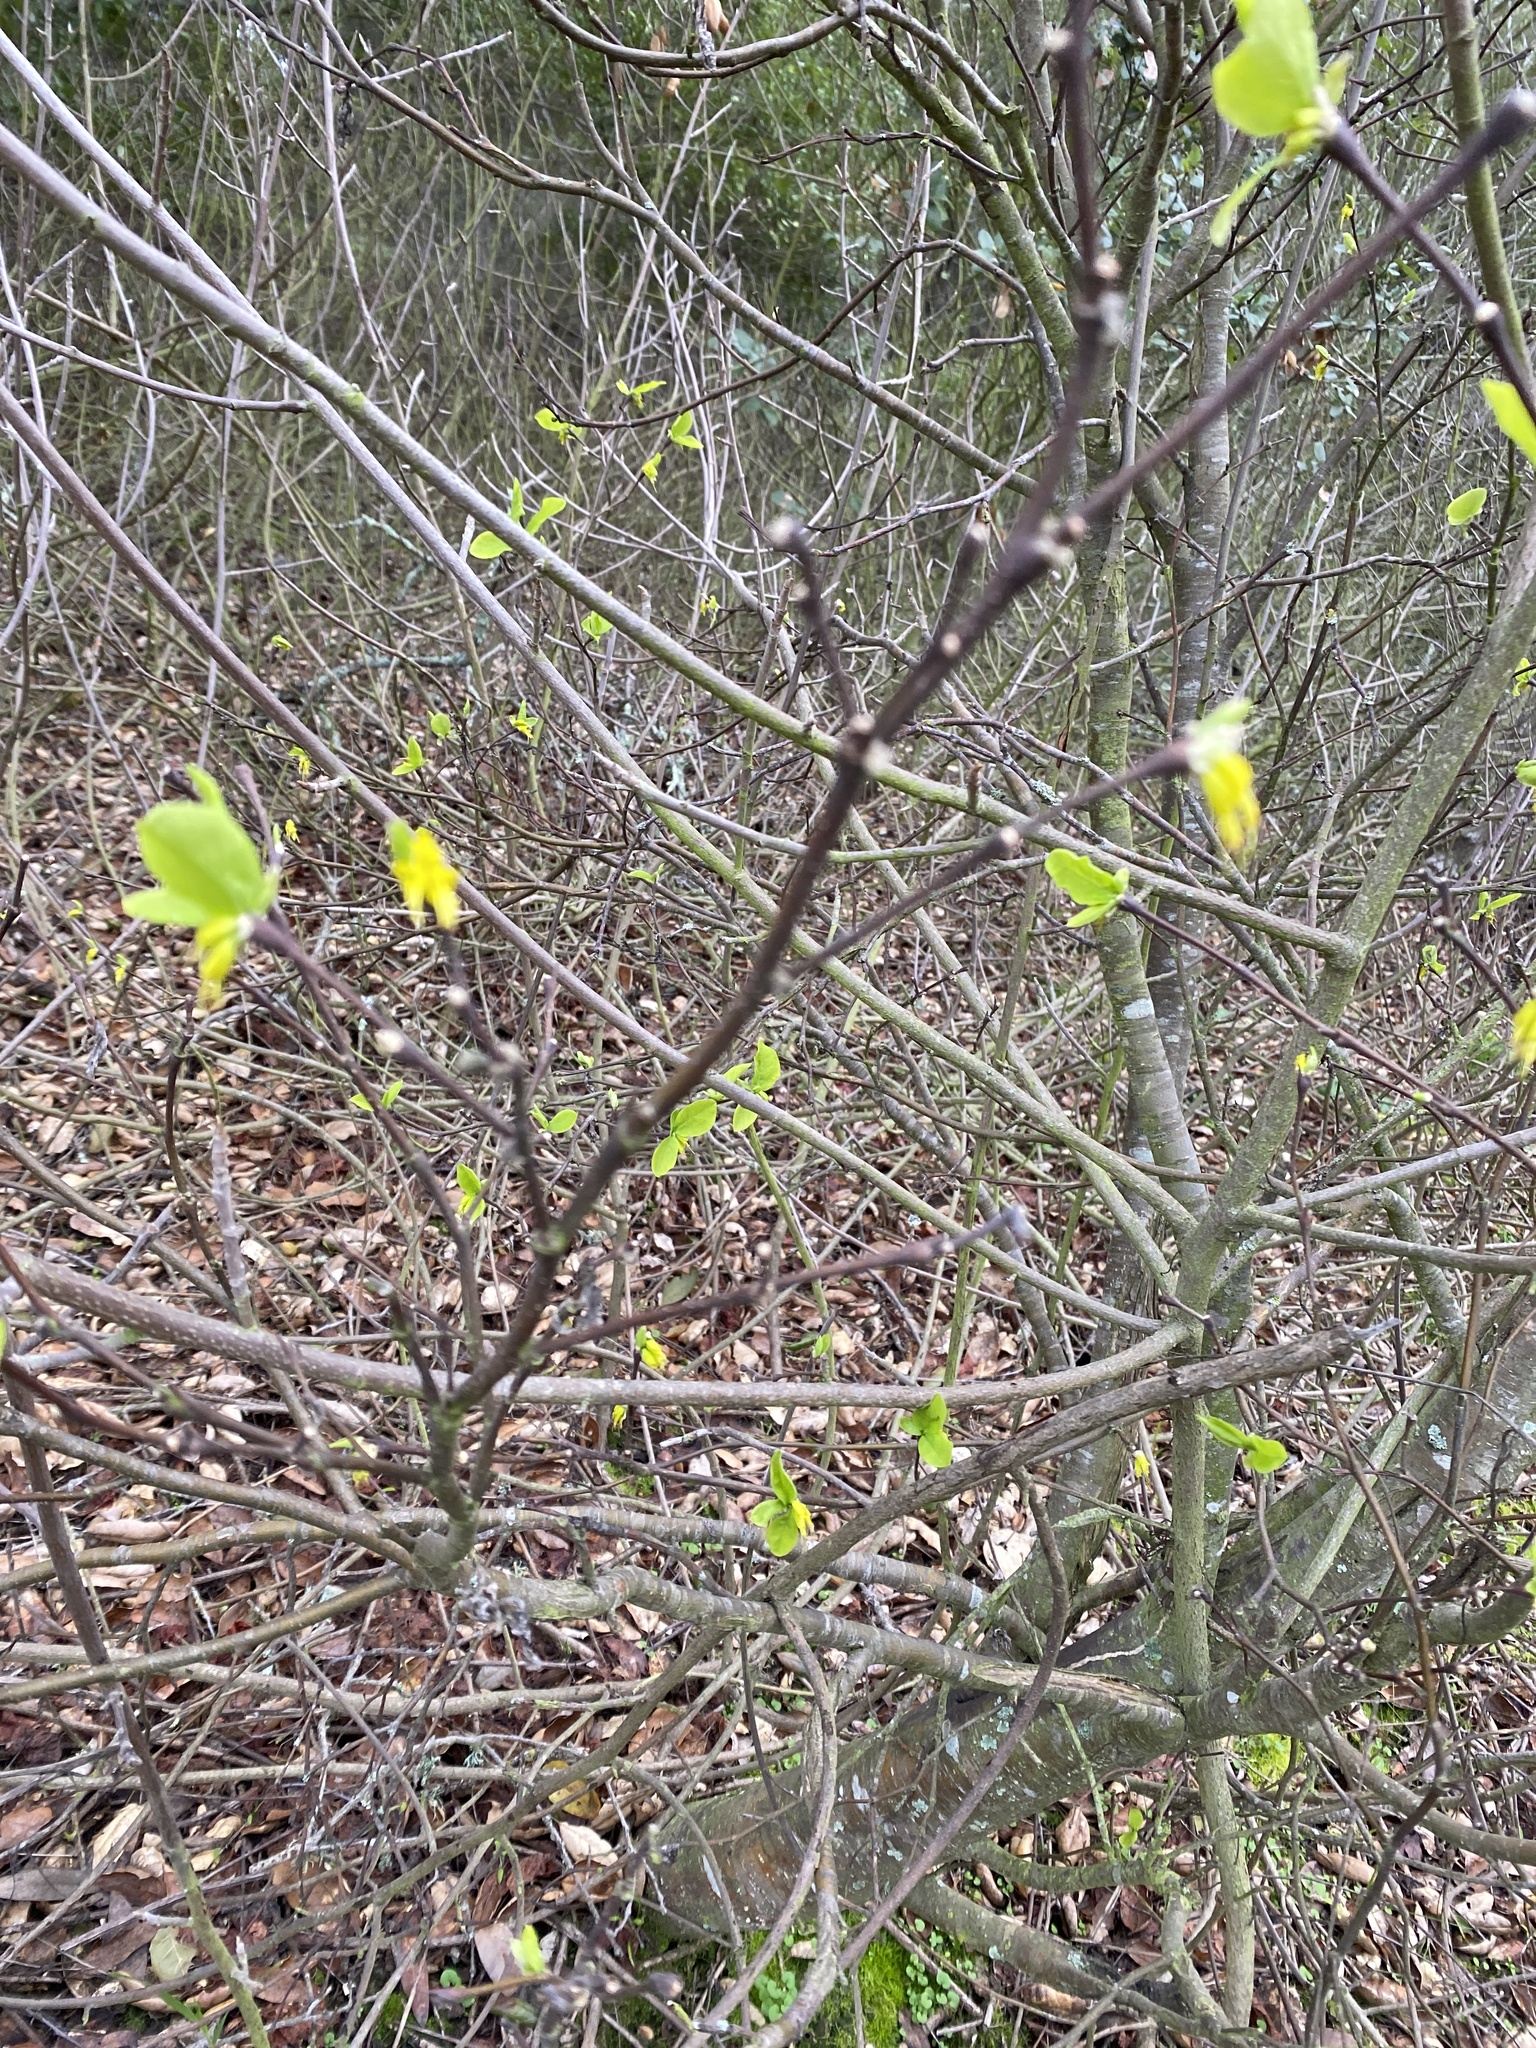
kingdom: Plantae
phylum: Tracheophyta
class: Magnoliopsida
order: Malvales
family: Thymelaeaceae
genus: Dirca
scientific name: Dirca occidentalis
